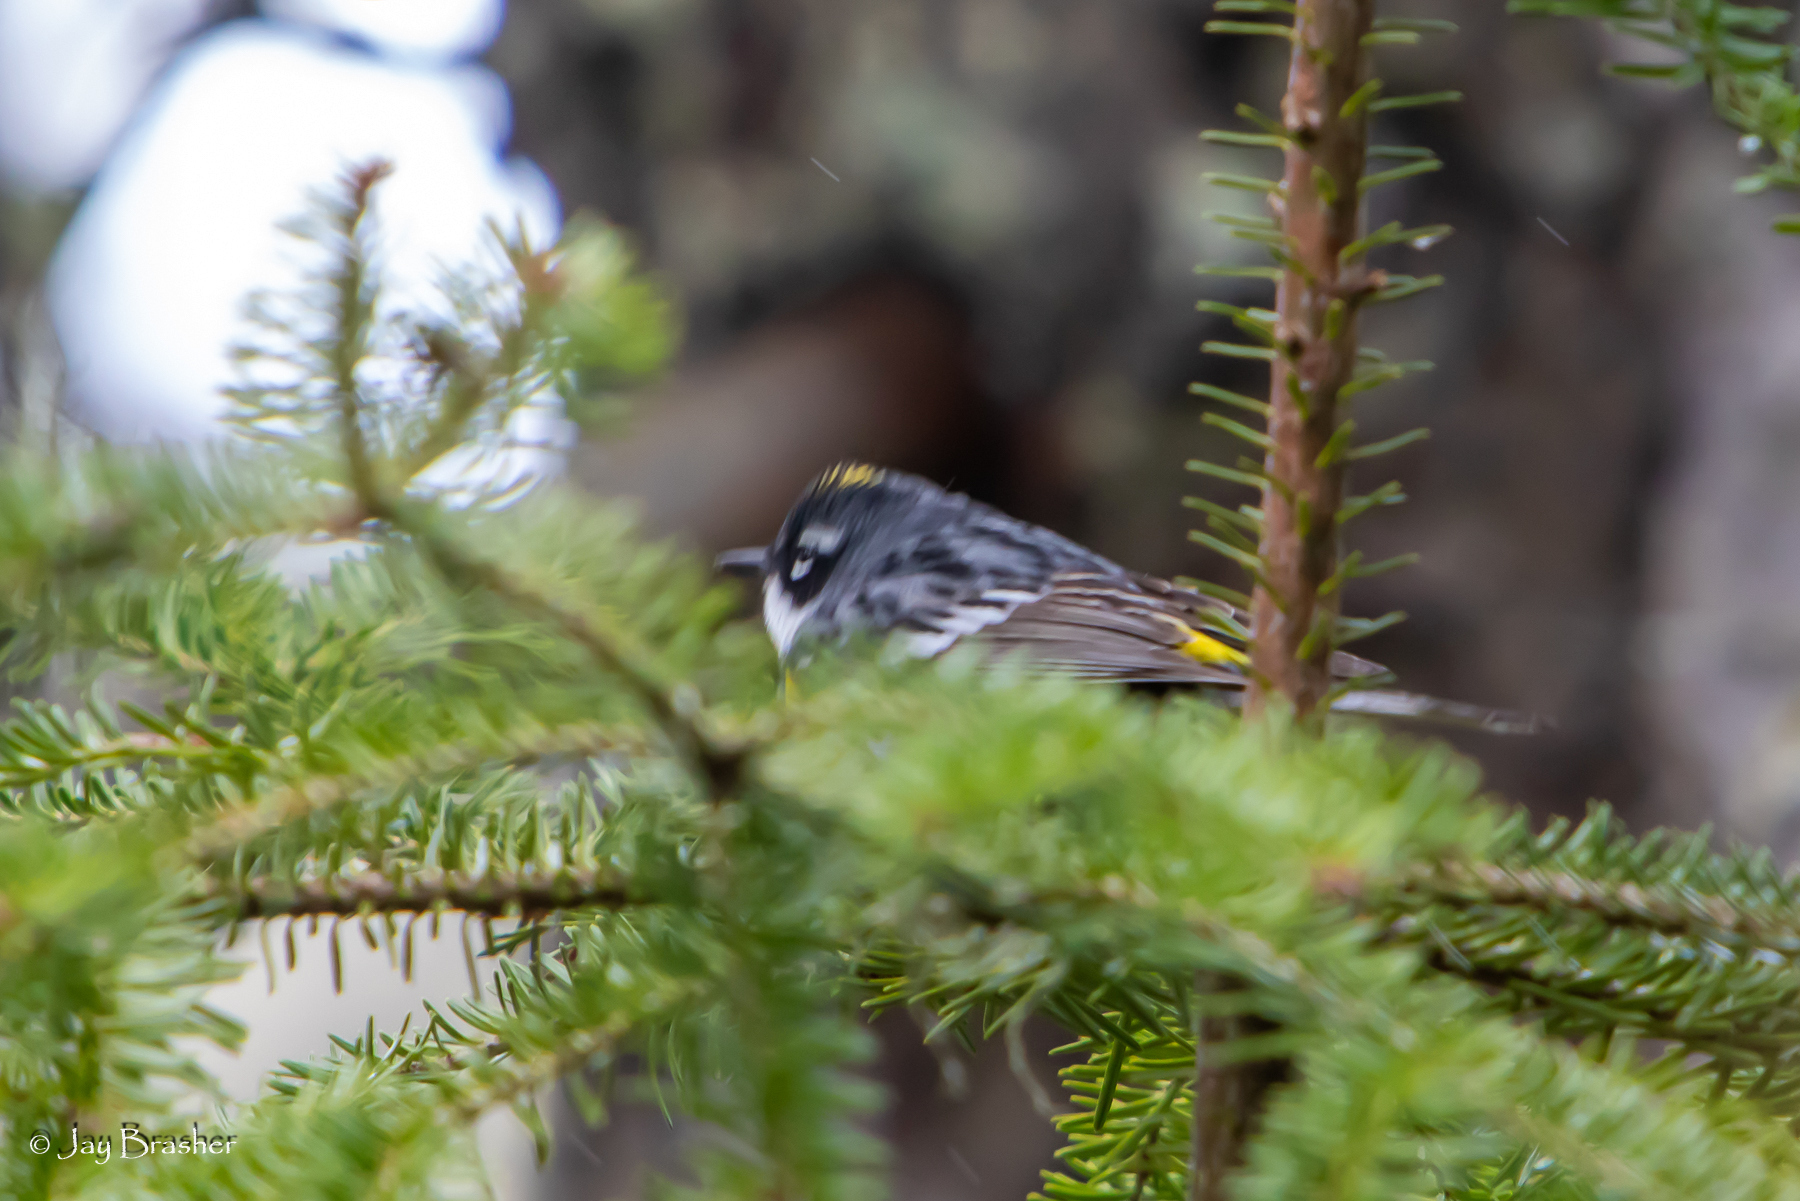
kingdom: Animalia
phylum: Chordata
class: Aves
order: Passeriformes
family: Parulidae
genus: Setophaga
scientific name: Setophaga coronata
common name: Myrtle warbler
